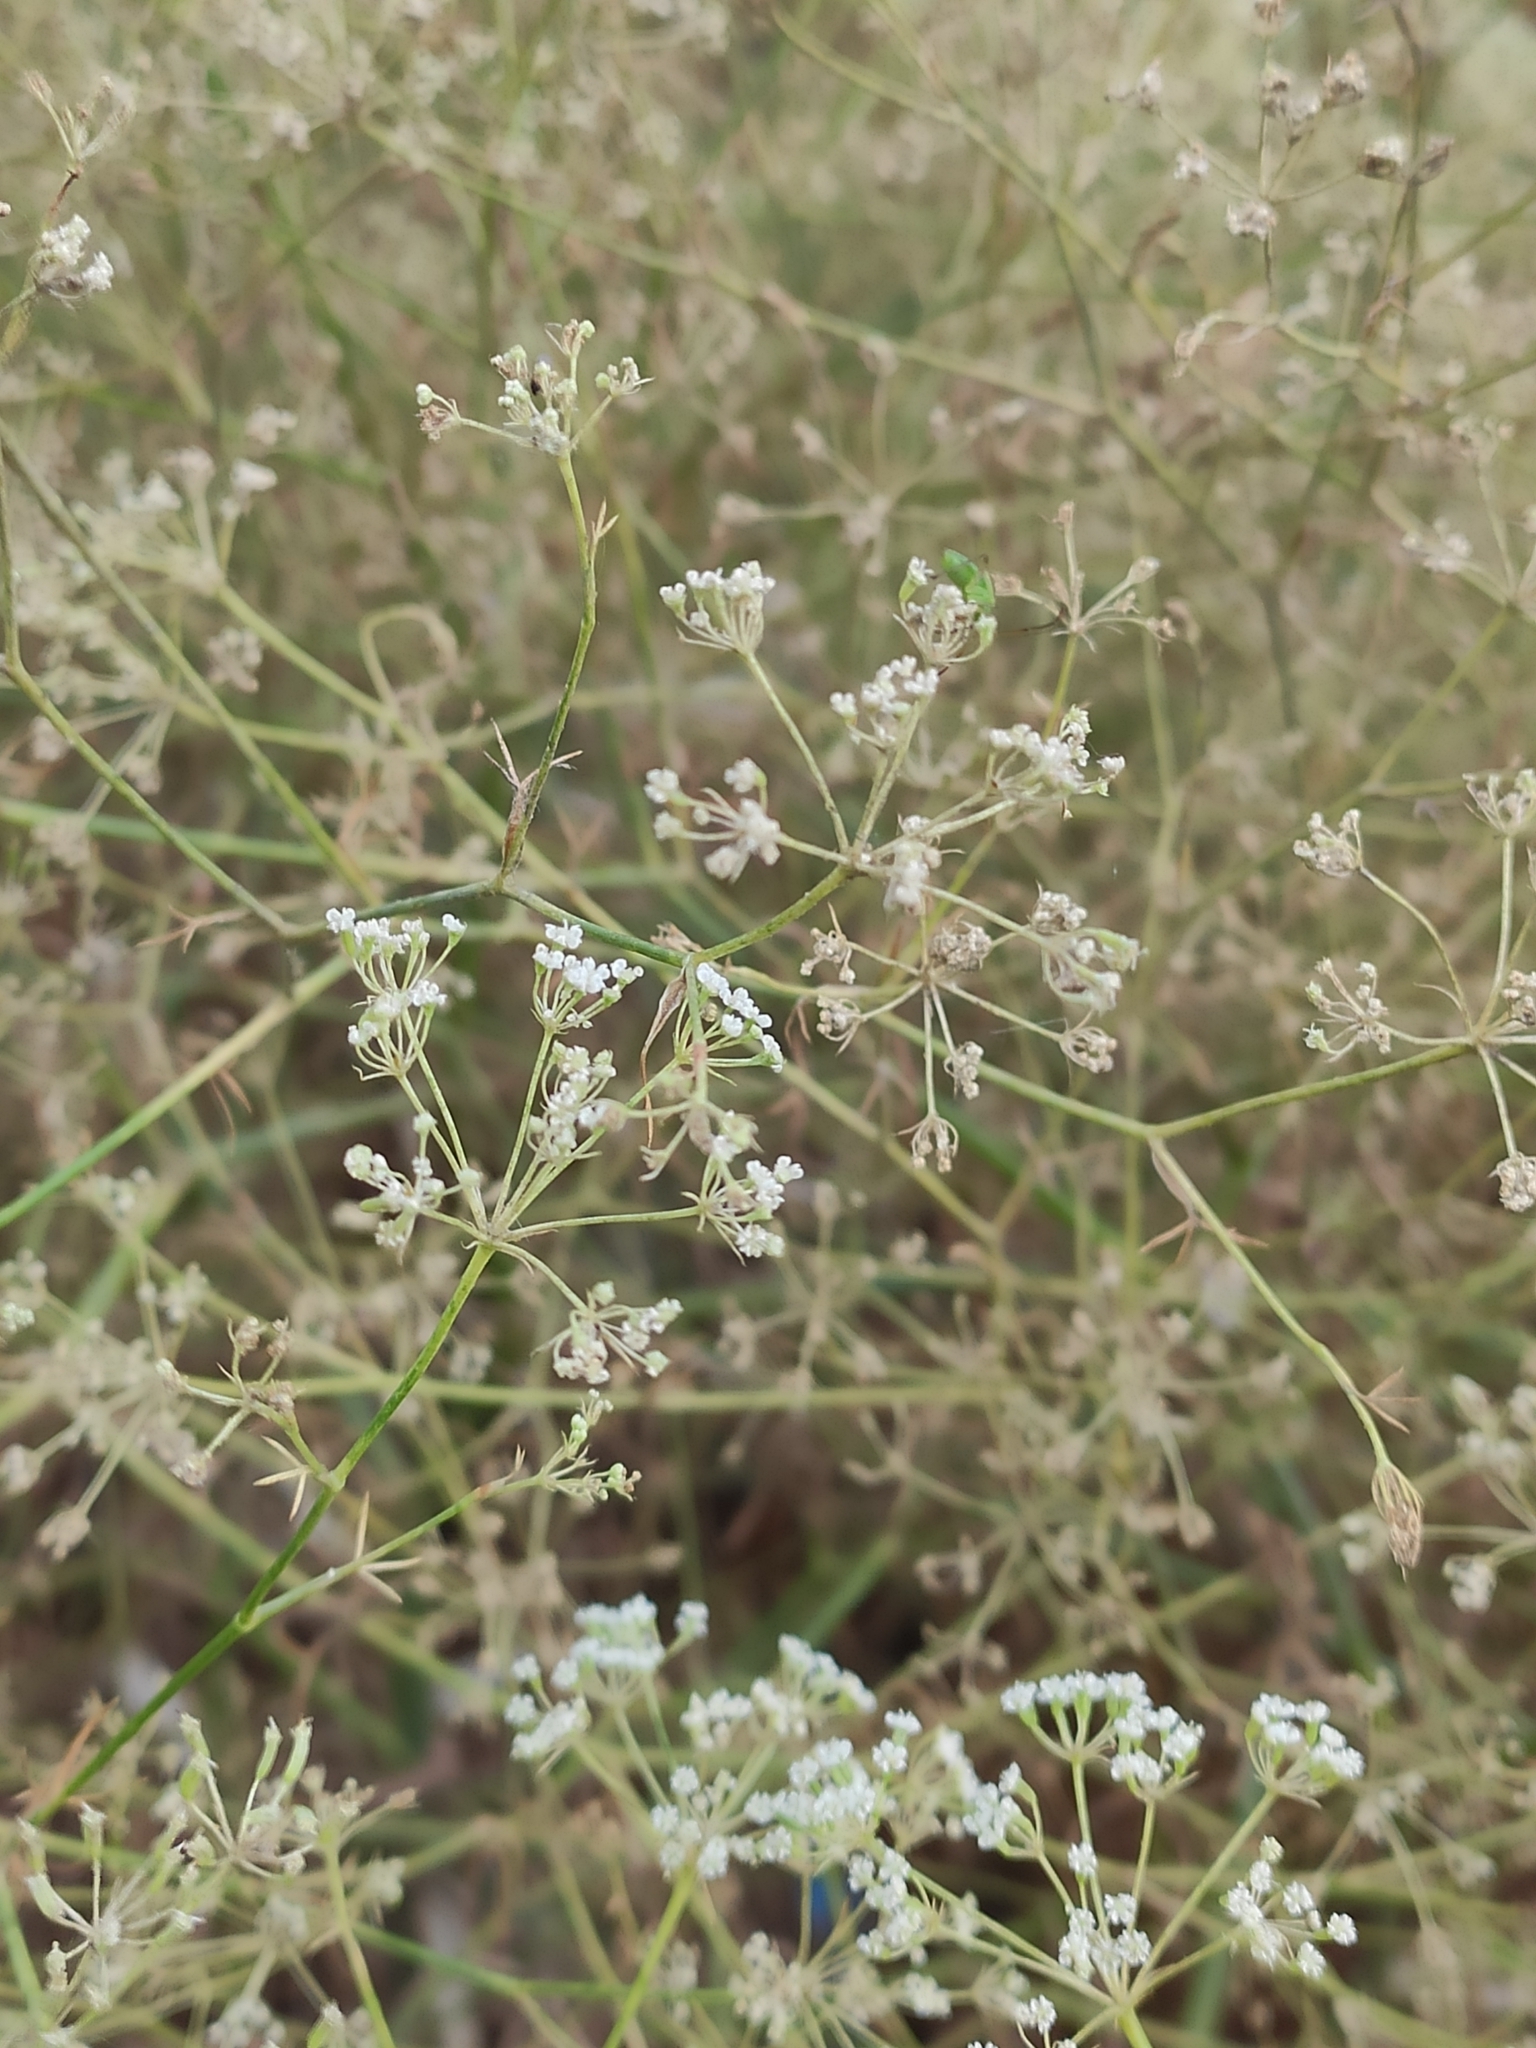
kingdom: Plantae
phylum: Tracheophyta
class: Magnoliopsida
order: Apiales
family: Apiaceae
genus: Falcaria
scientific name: Falcaria vulgaris
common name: Longleaf
